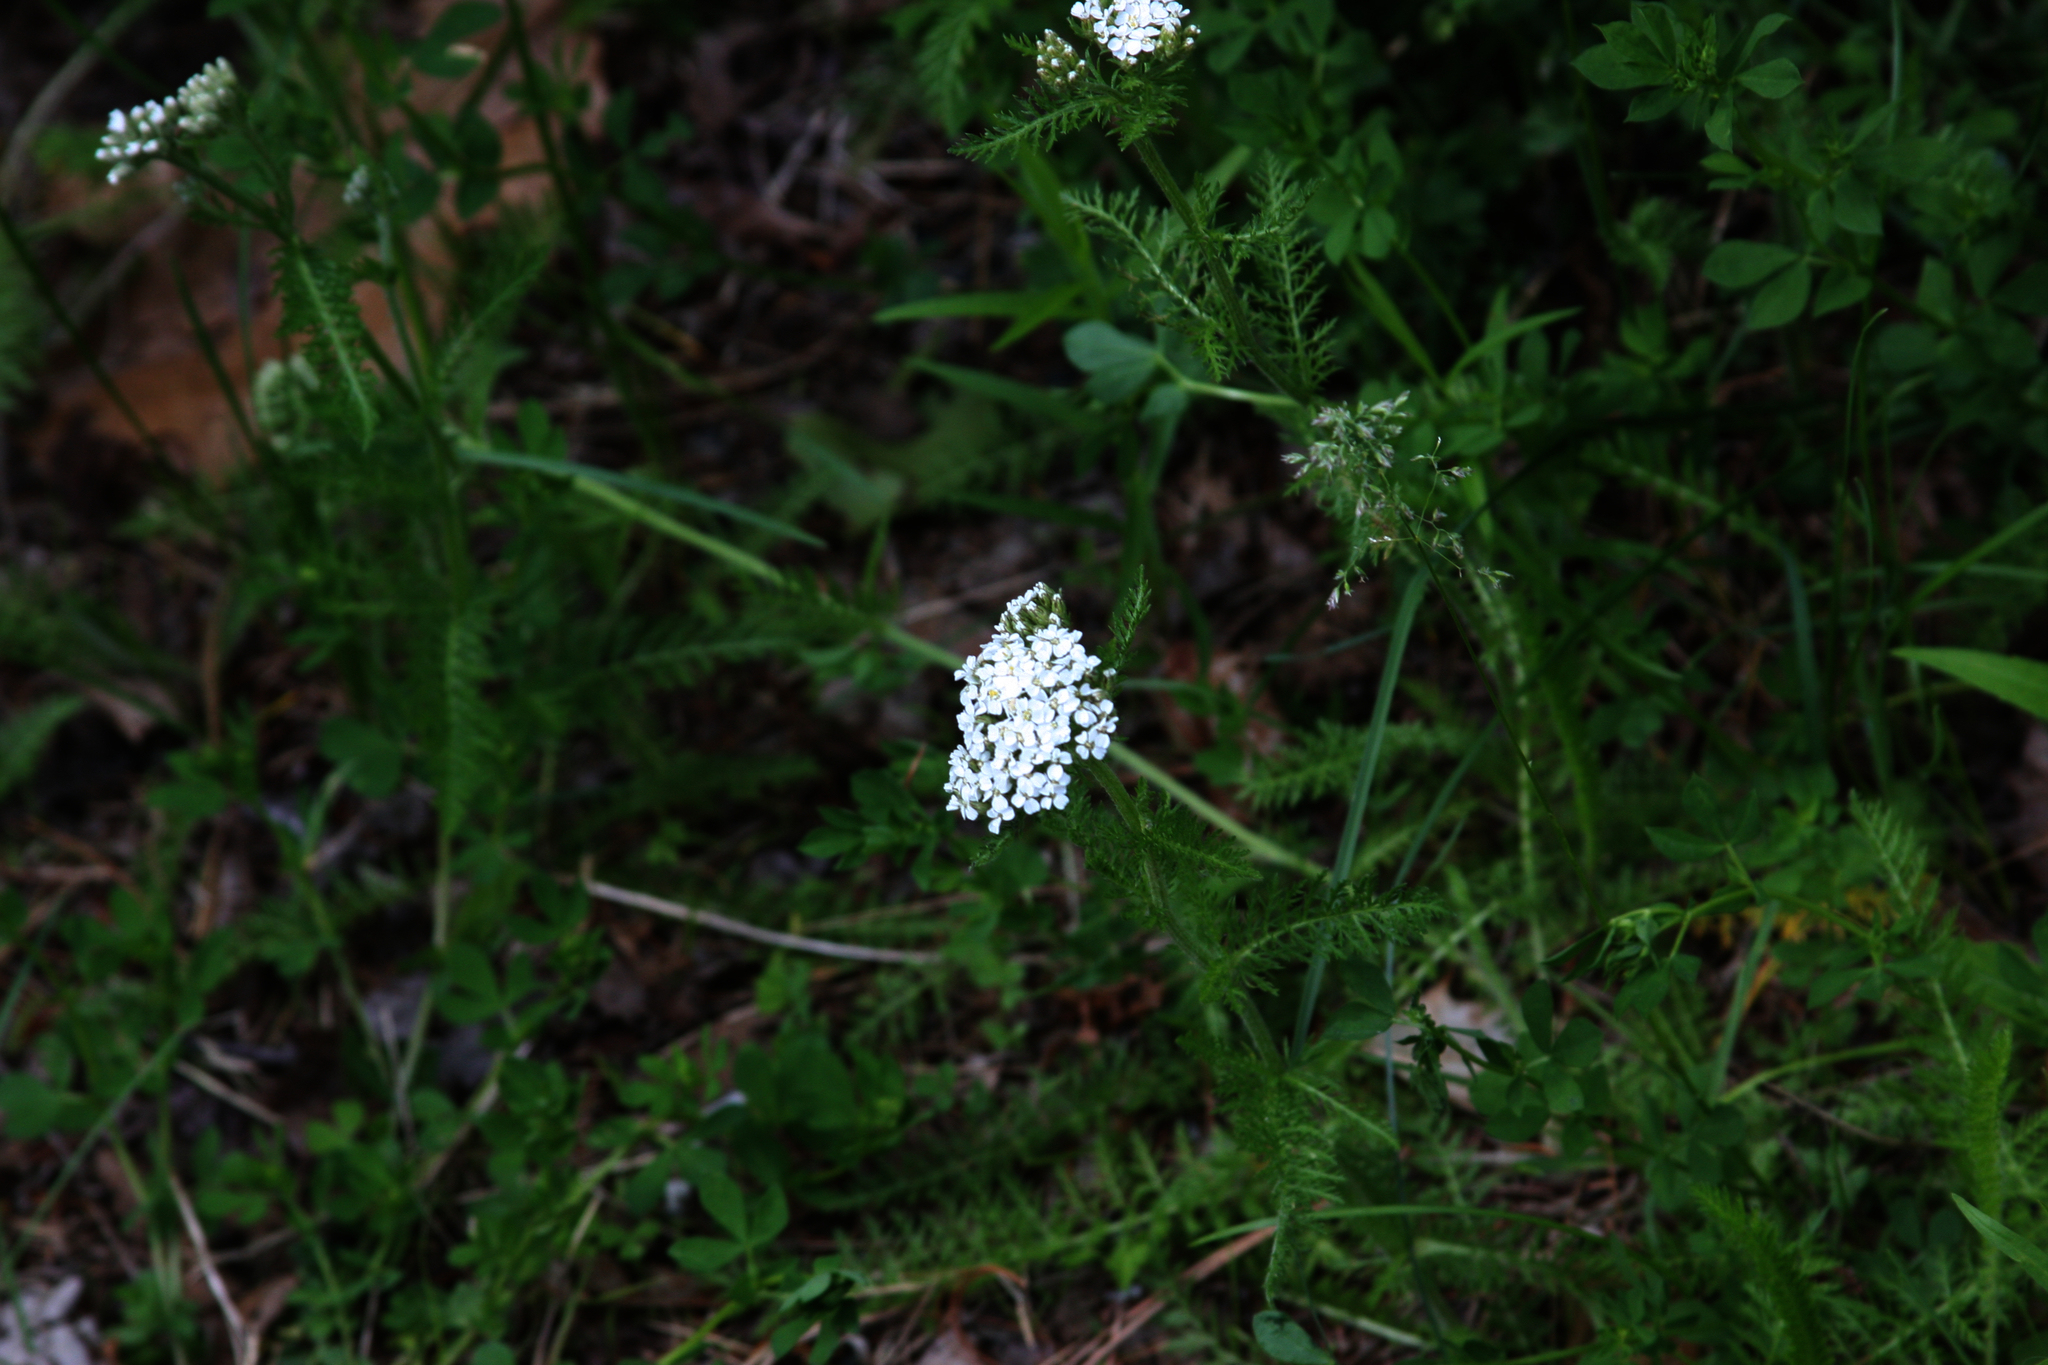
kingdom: Plantae
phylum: Tracheophyta
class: Magnoliopsida
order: Asterales
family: Asteraceae
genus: Achillea
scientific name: Achillea millefolium
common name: Yarrow
